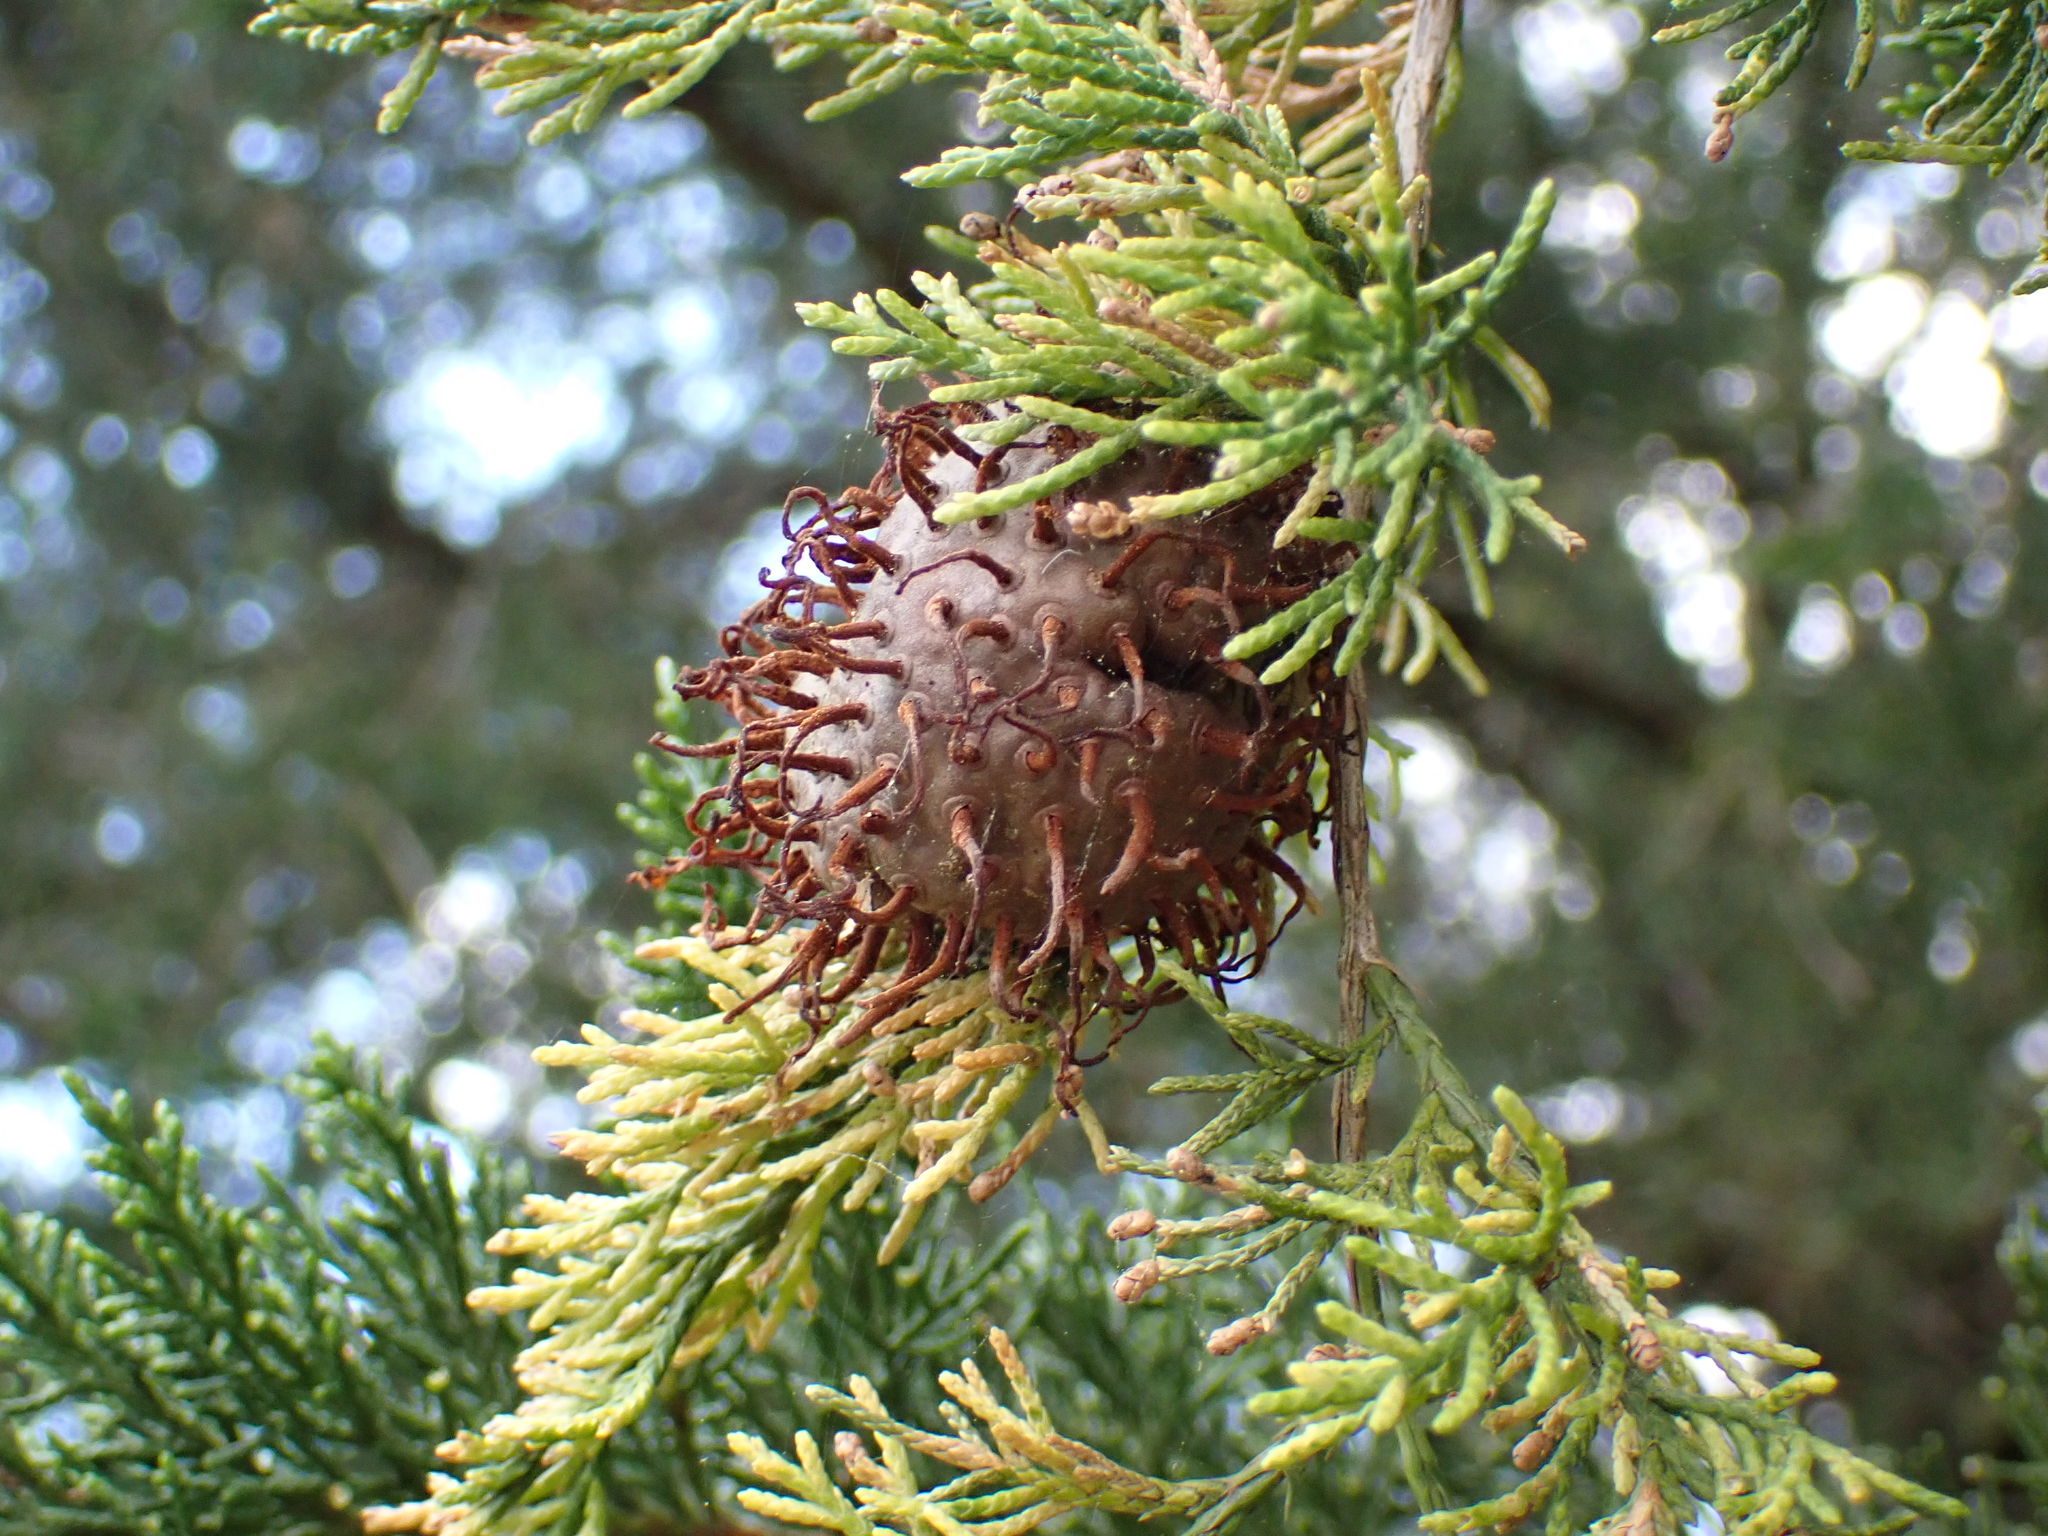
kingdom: Fungi
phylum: Basidiomycota
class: Pucciniomycetes
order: Pucciniales
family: Gymnosporangiaceae
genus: Gymnosporangium
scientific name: Gymnosporangium juniperi-virginianae
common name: Juniper-apple rust
